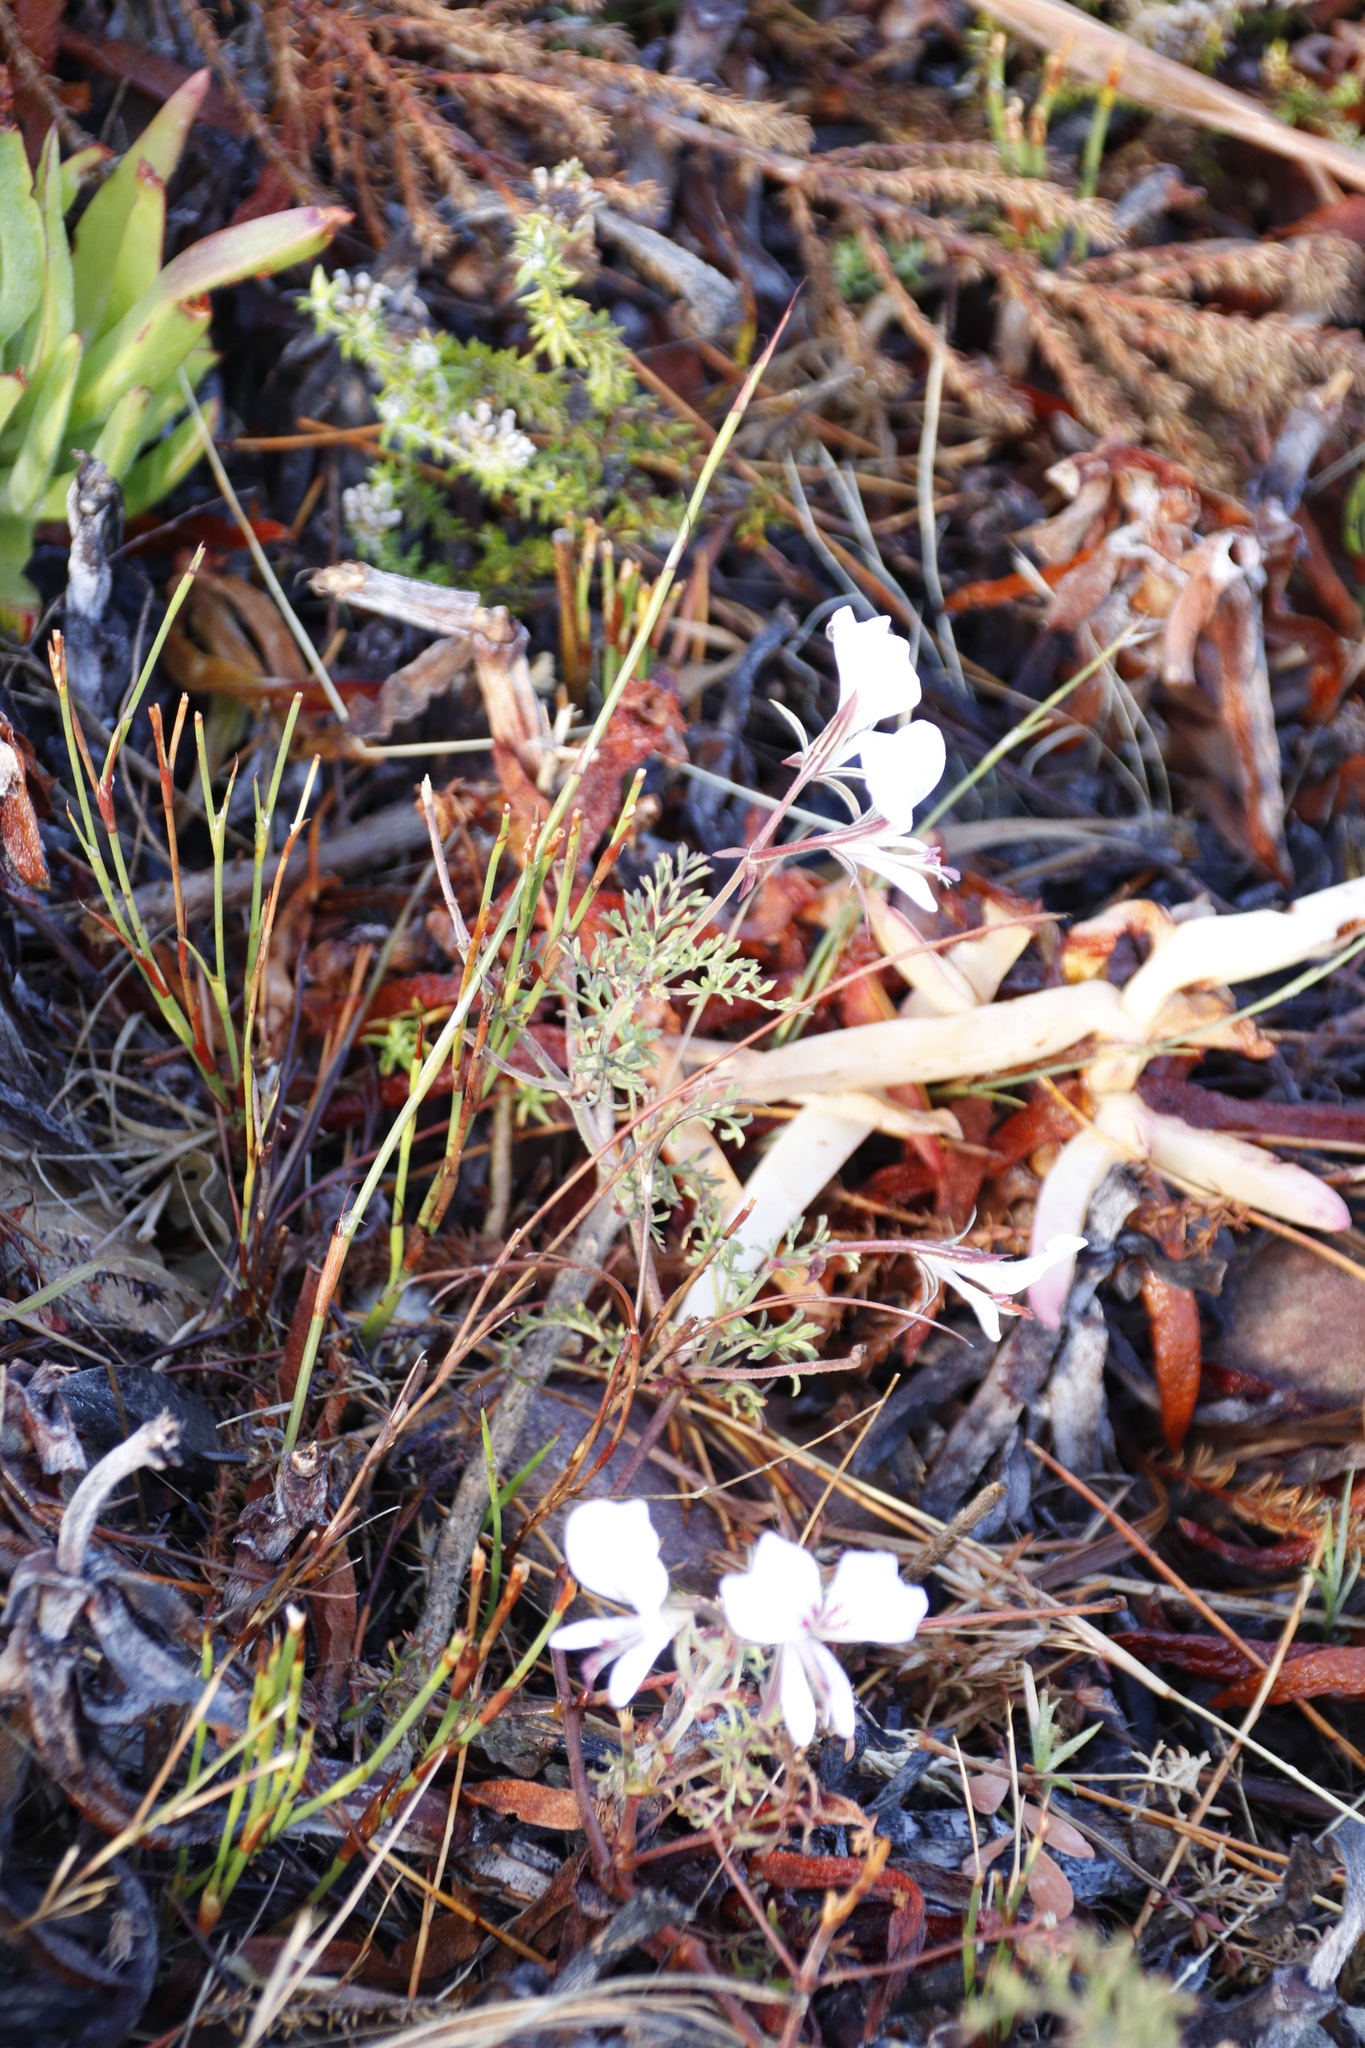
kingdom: Plantae
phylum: Tracheophyta
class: Magnoliopsida
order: Geraniales
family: Geraniaceae
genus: Pelargonium
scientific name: Pelargonium longicaule
